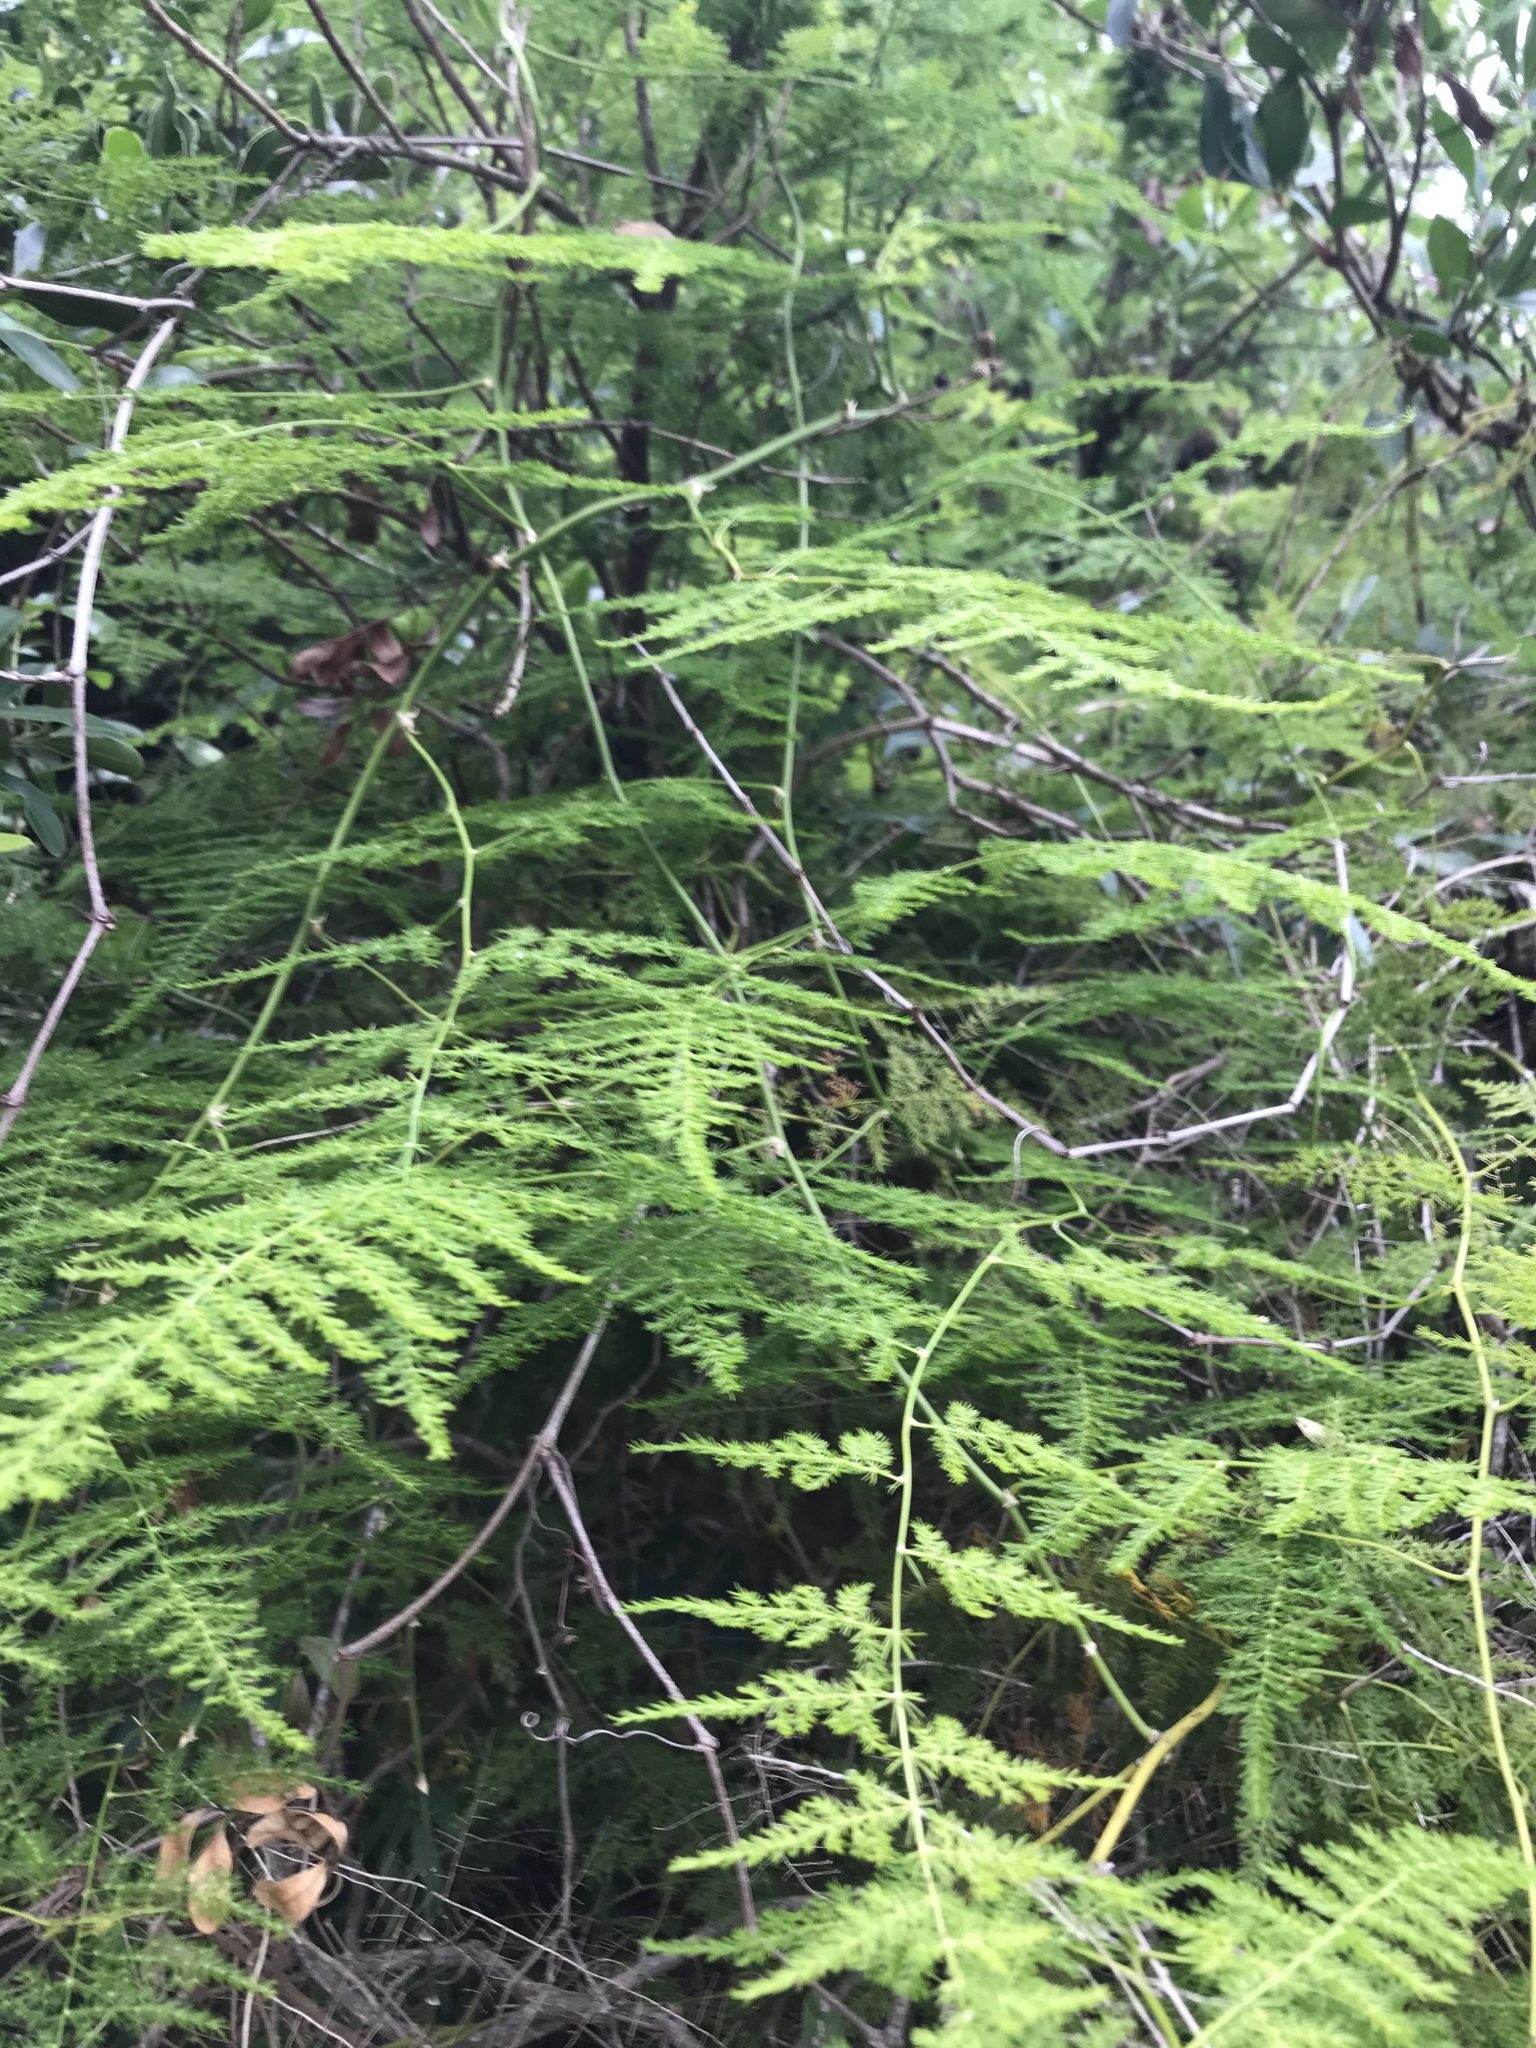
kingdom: Plantae
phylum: Tracheophyta
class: Liliopsida
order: Asparagales
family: Asparagaceae
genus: Asparagus
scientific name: Asparagus setaceus
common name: Common asparagus fern
